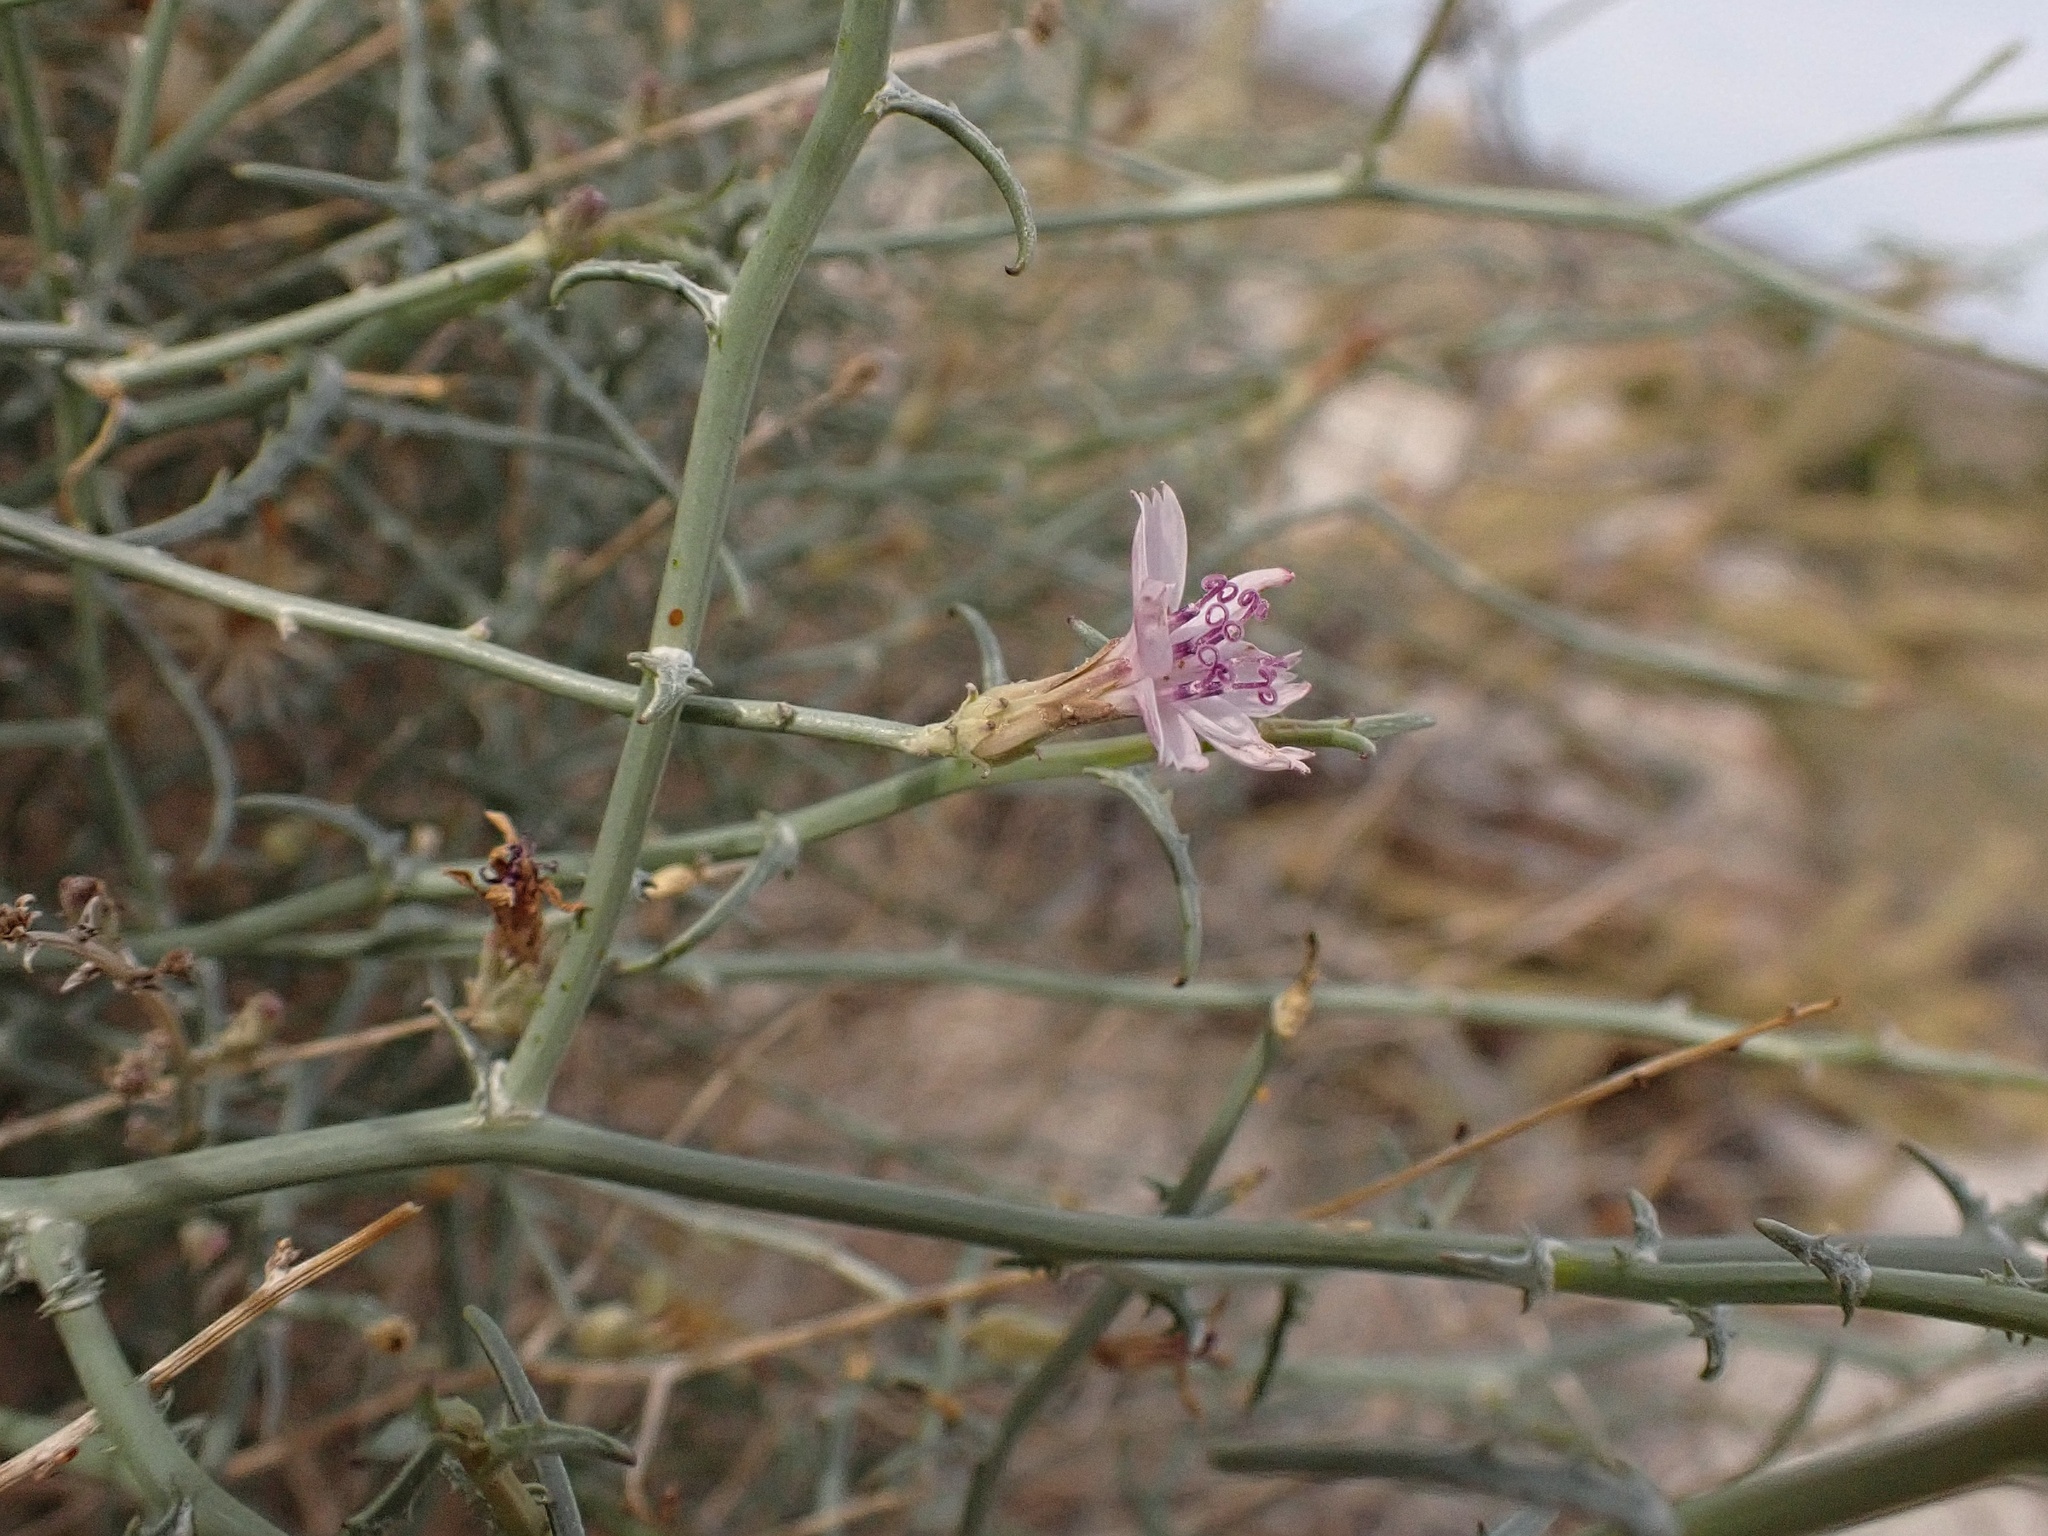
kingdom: Plantae
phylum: Tracheophyta
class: Magnoliopsida
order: Asterales
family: Asteraceae
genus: Stephanomeria
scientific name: Stephanomeria pauciflora
